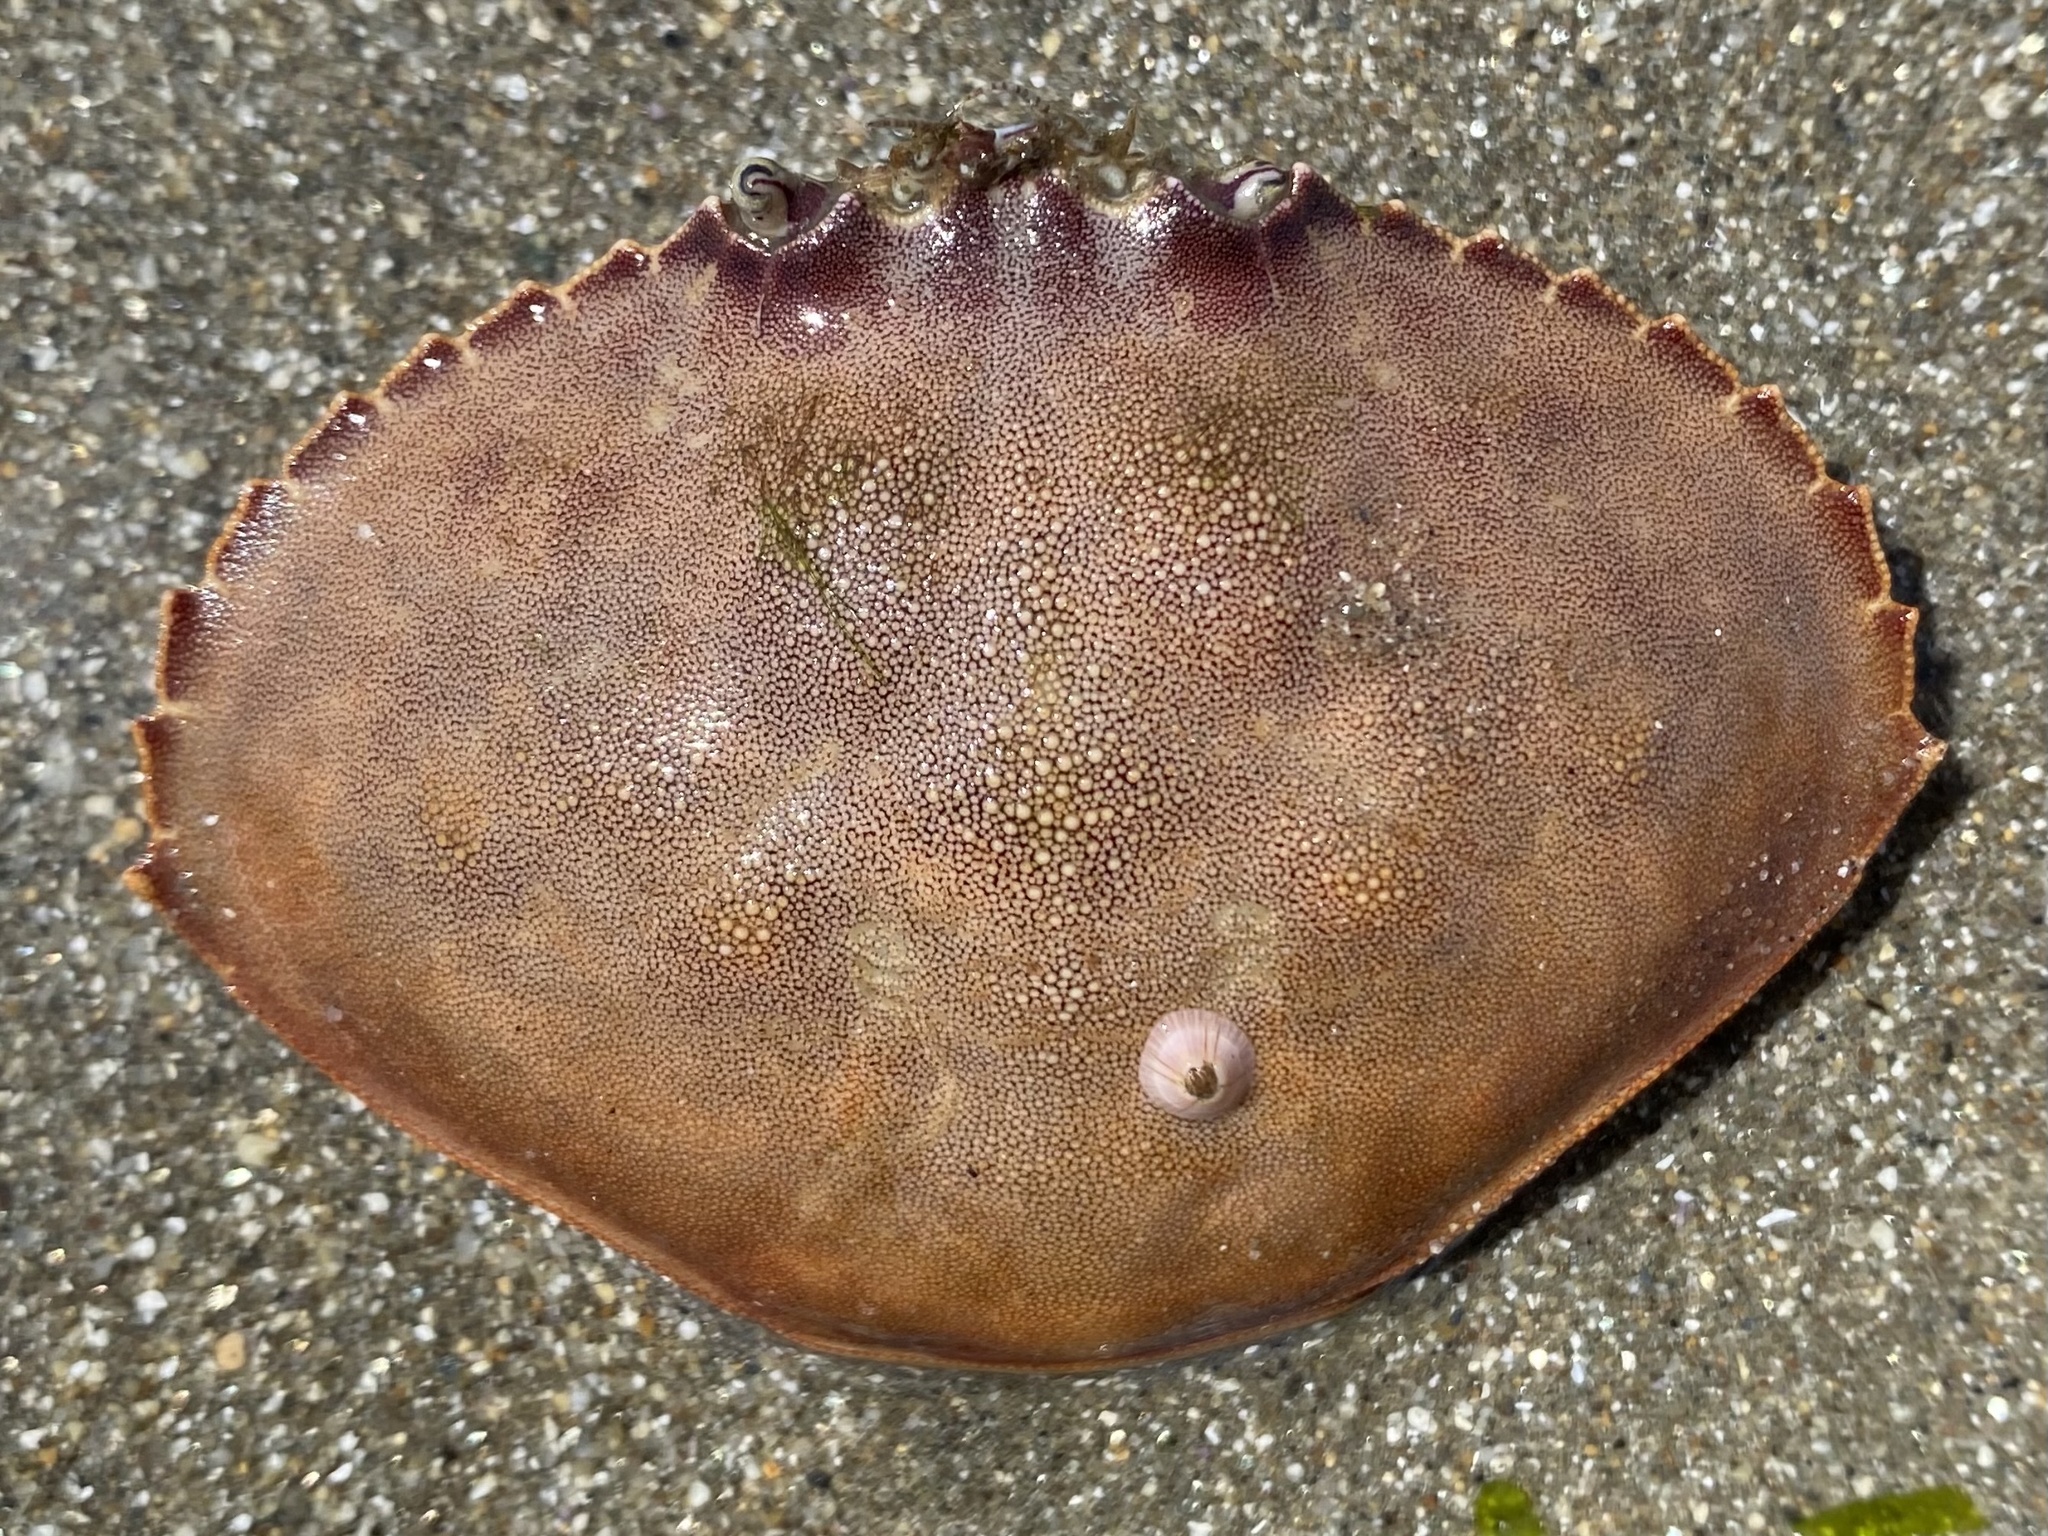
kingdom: Animalia
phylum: Arthropoda
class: Malacostraca
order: Decapoda
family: Cancridae
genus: Metacarcinus
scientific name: Metacarcinus gracilis
